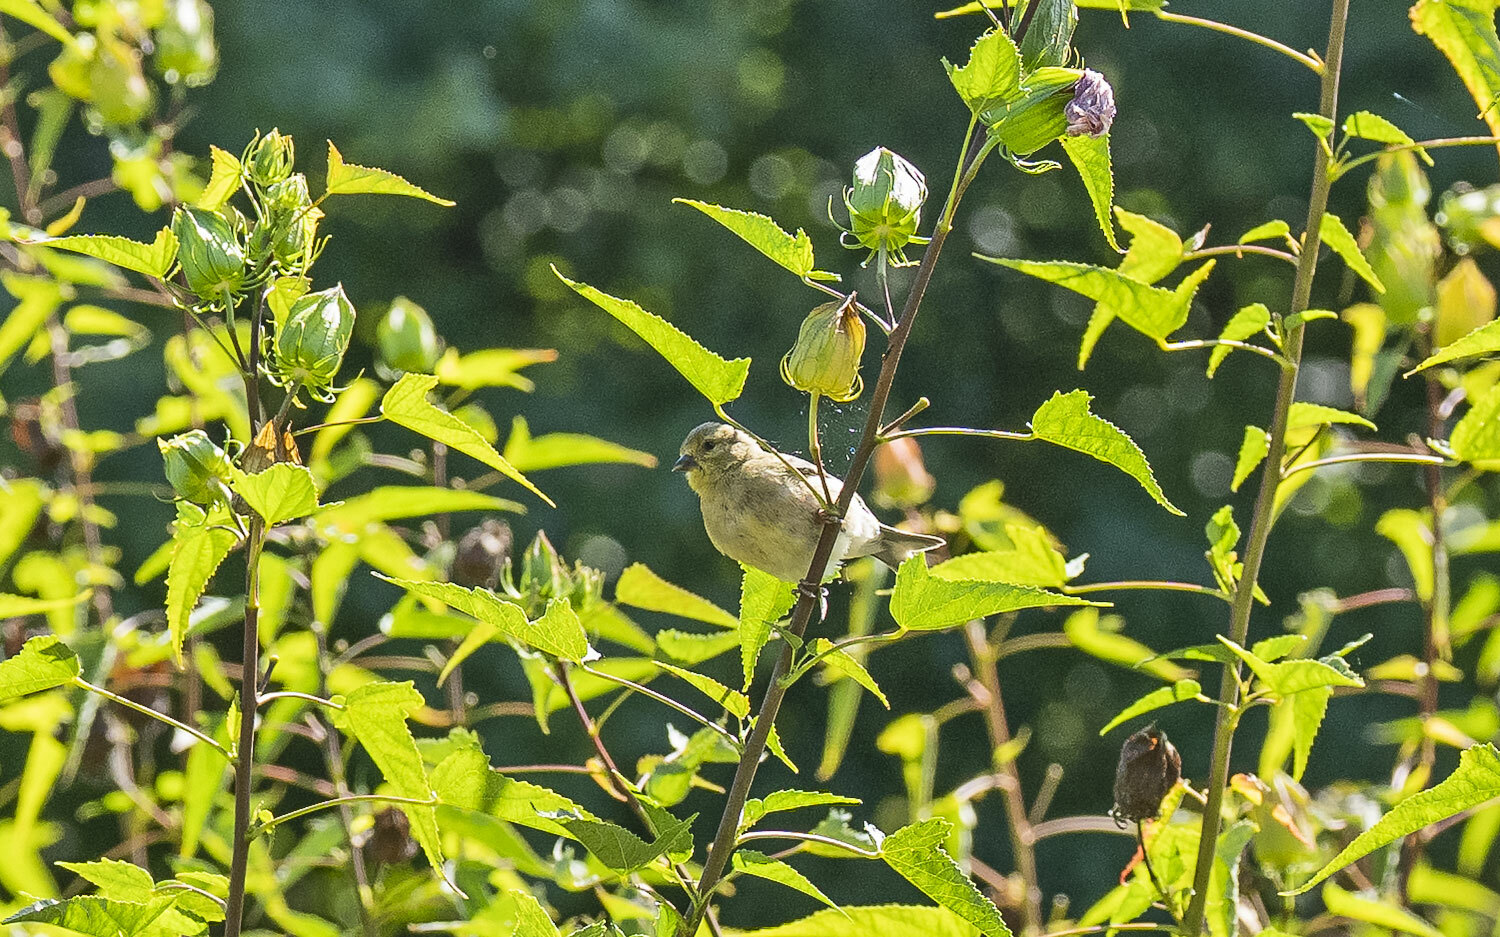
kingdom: Animalia
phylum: Chordata
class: Aves
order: Passeriformes
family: Fringillidae
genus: Spinus
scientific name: Spinus tristis
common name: American goldfinch
